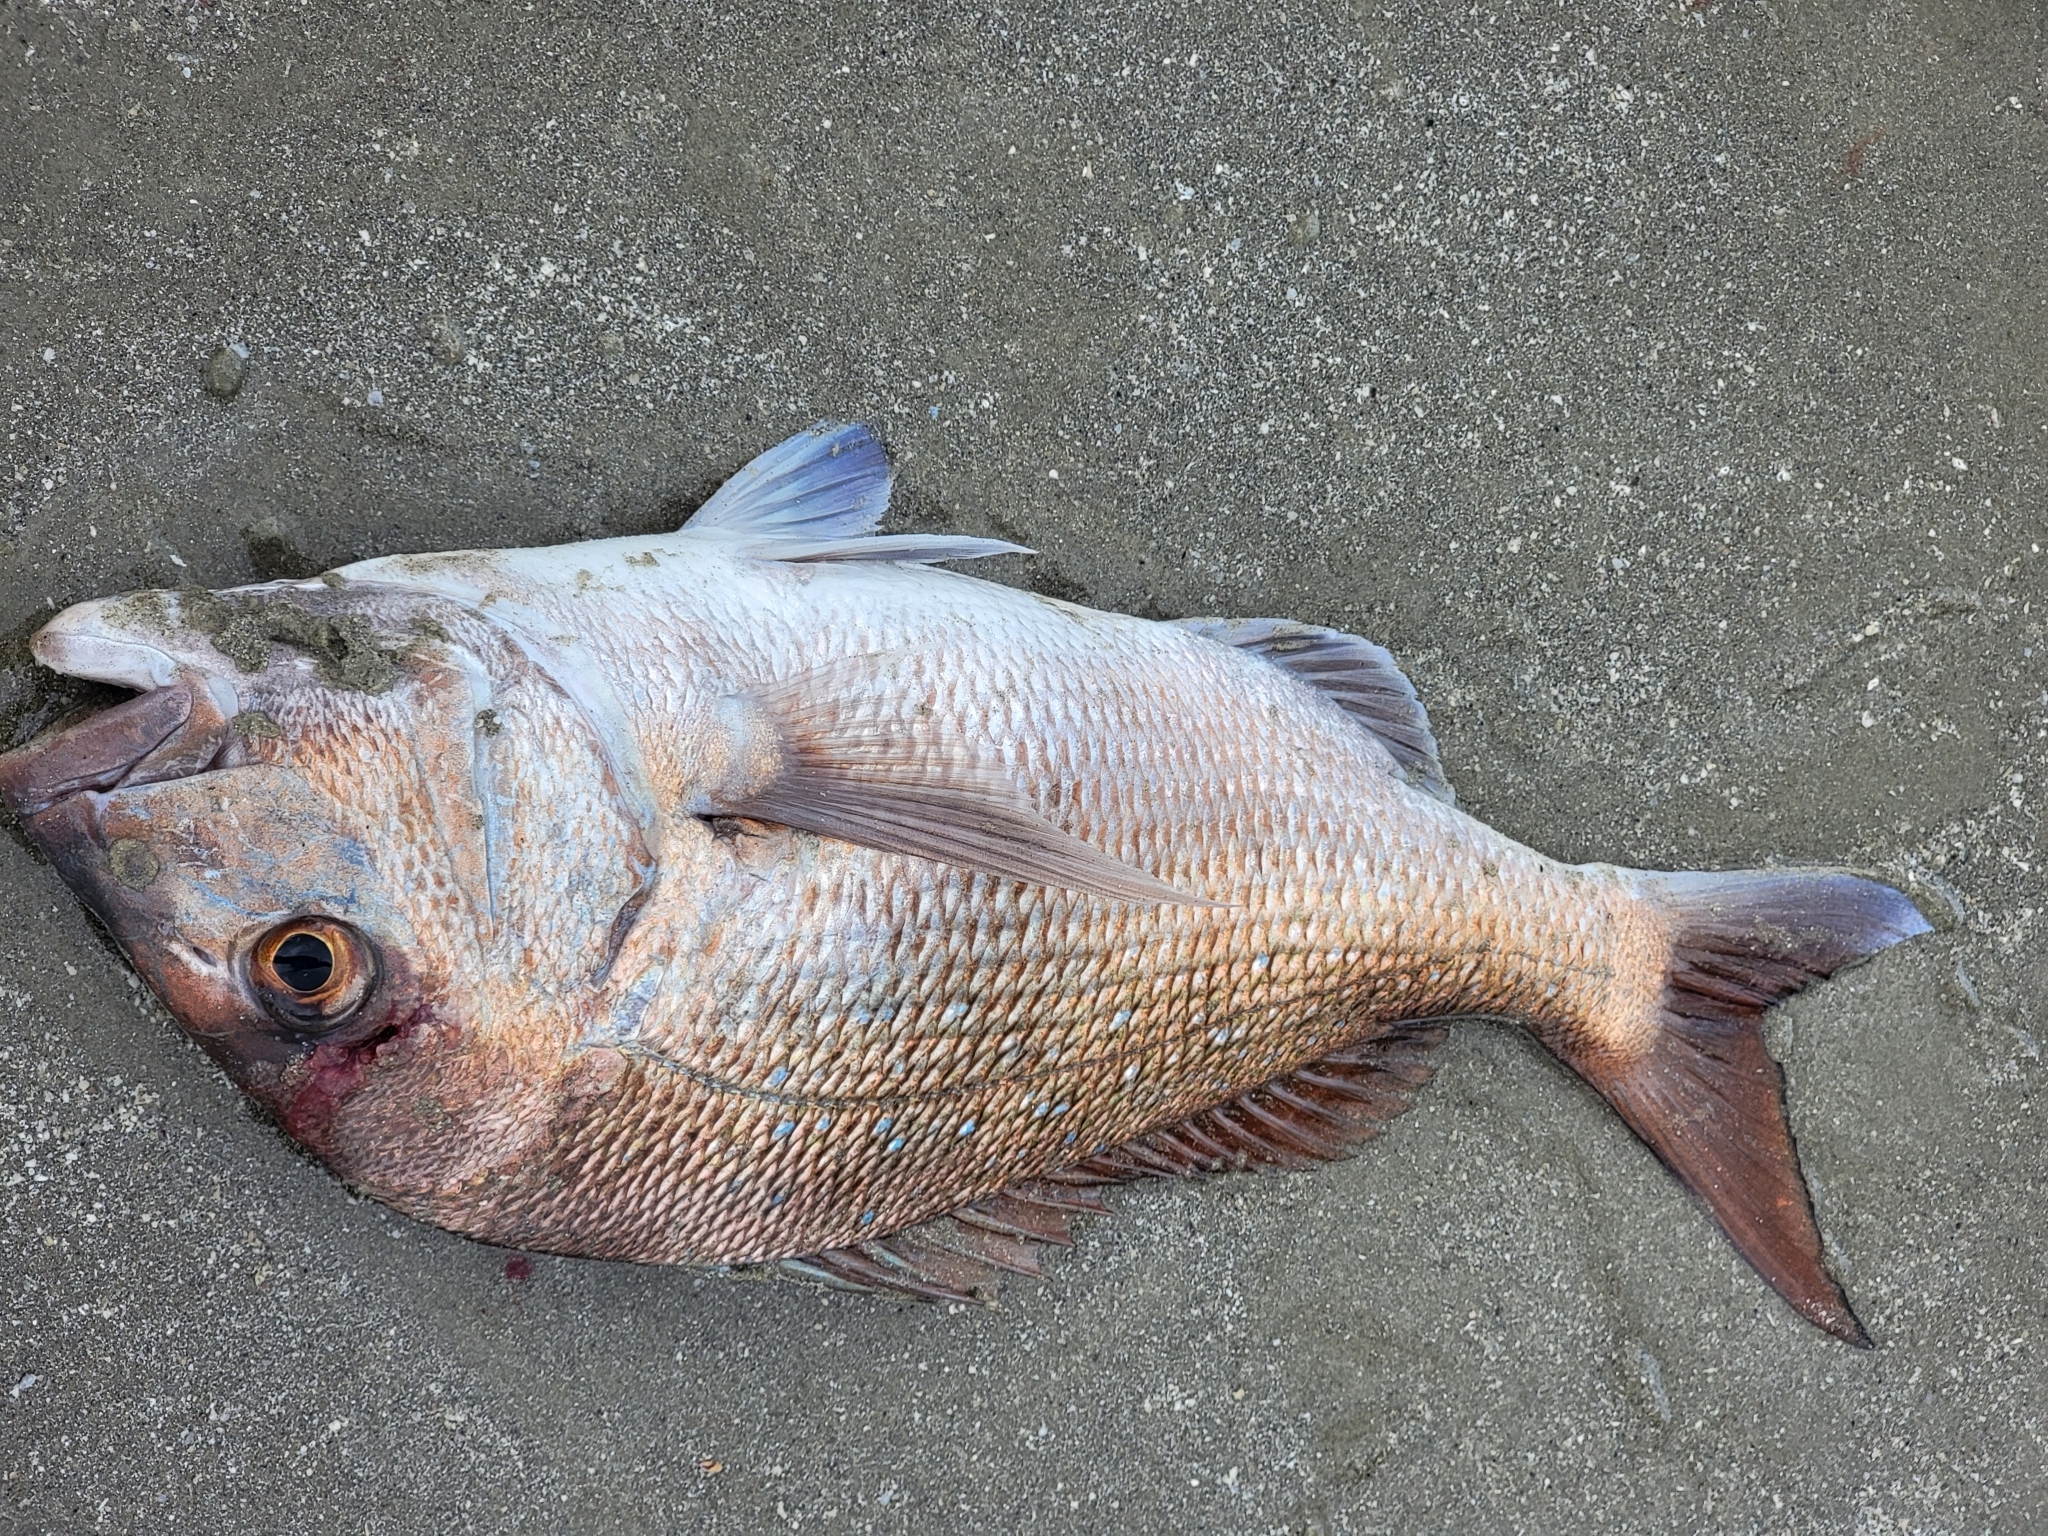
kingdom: Animalia
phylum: Chordata
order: Perciformes
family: Sparidae
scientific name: Sparidae
